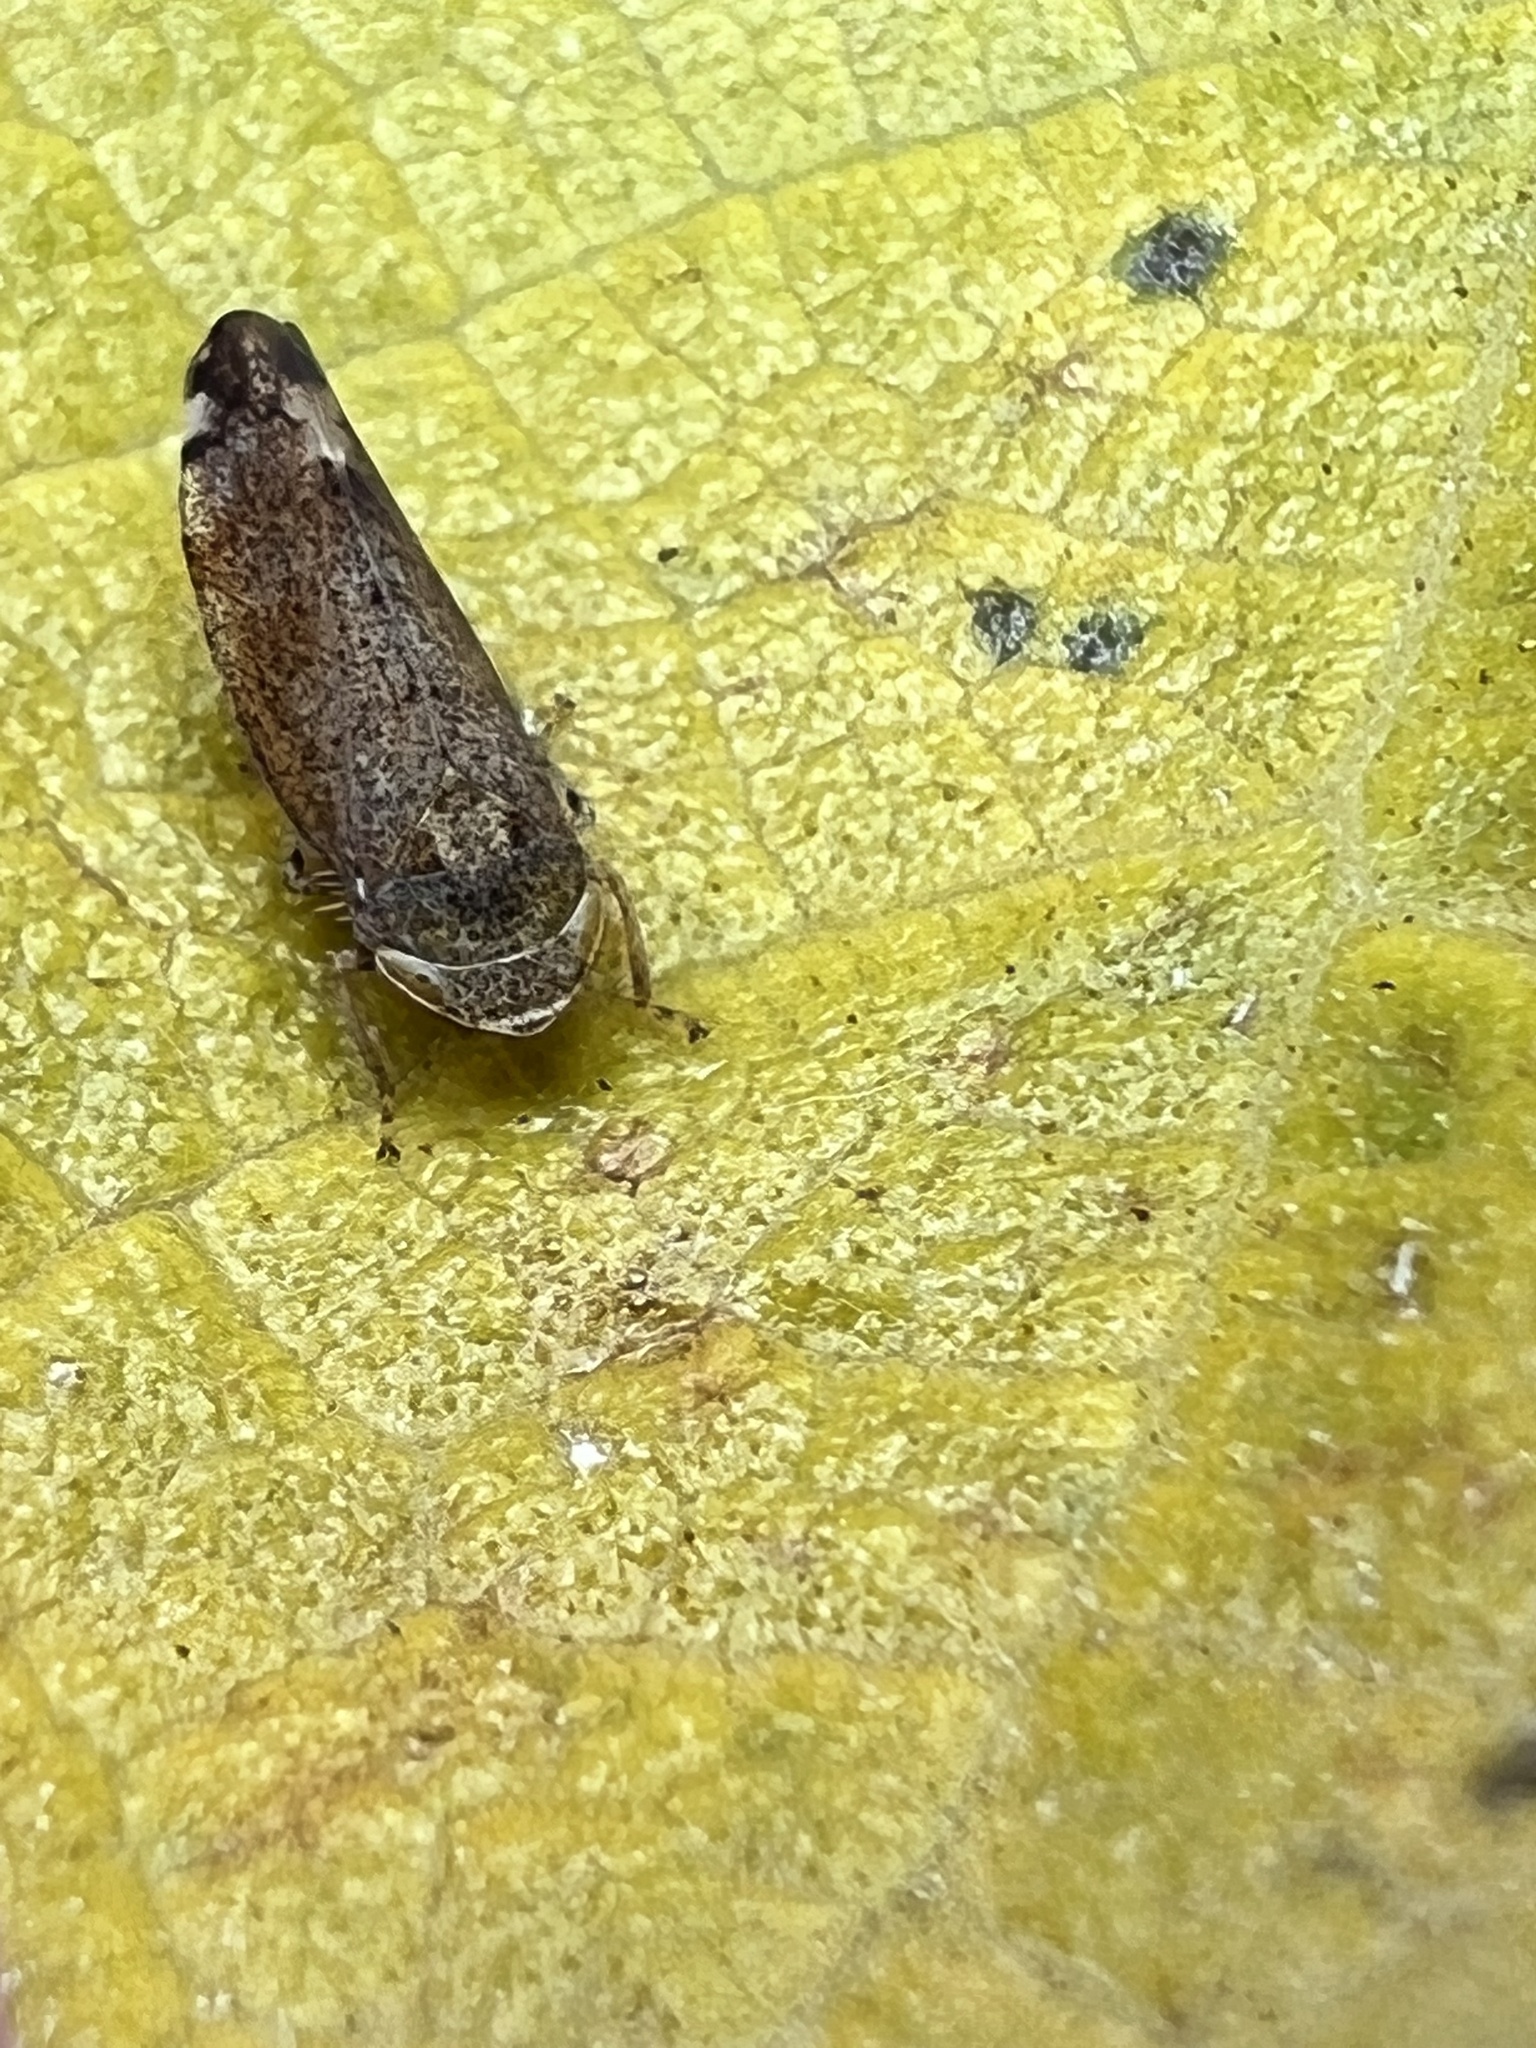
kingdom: Animalia
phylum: Arthropoda
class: Insecta
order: Hemiptera
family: Cicadellidae
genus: Fieberiella
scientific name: Fieberiella florii
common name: Flor’s leafhopper
